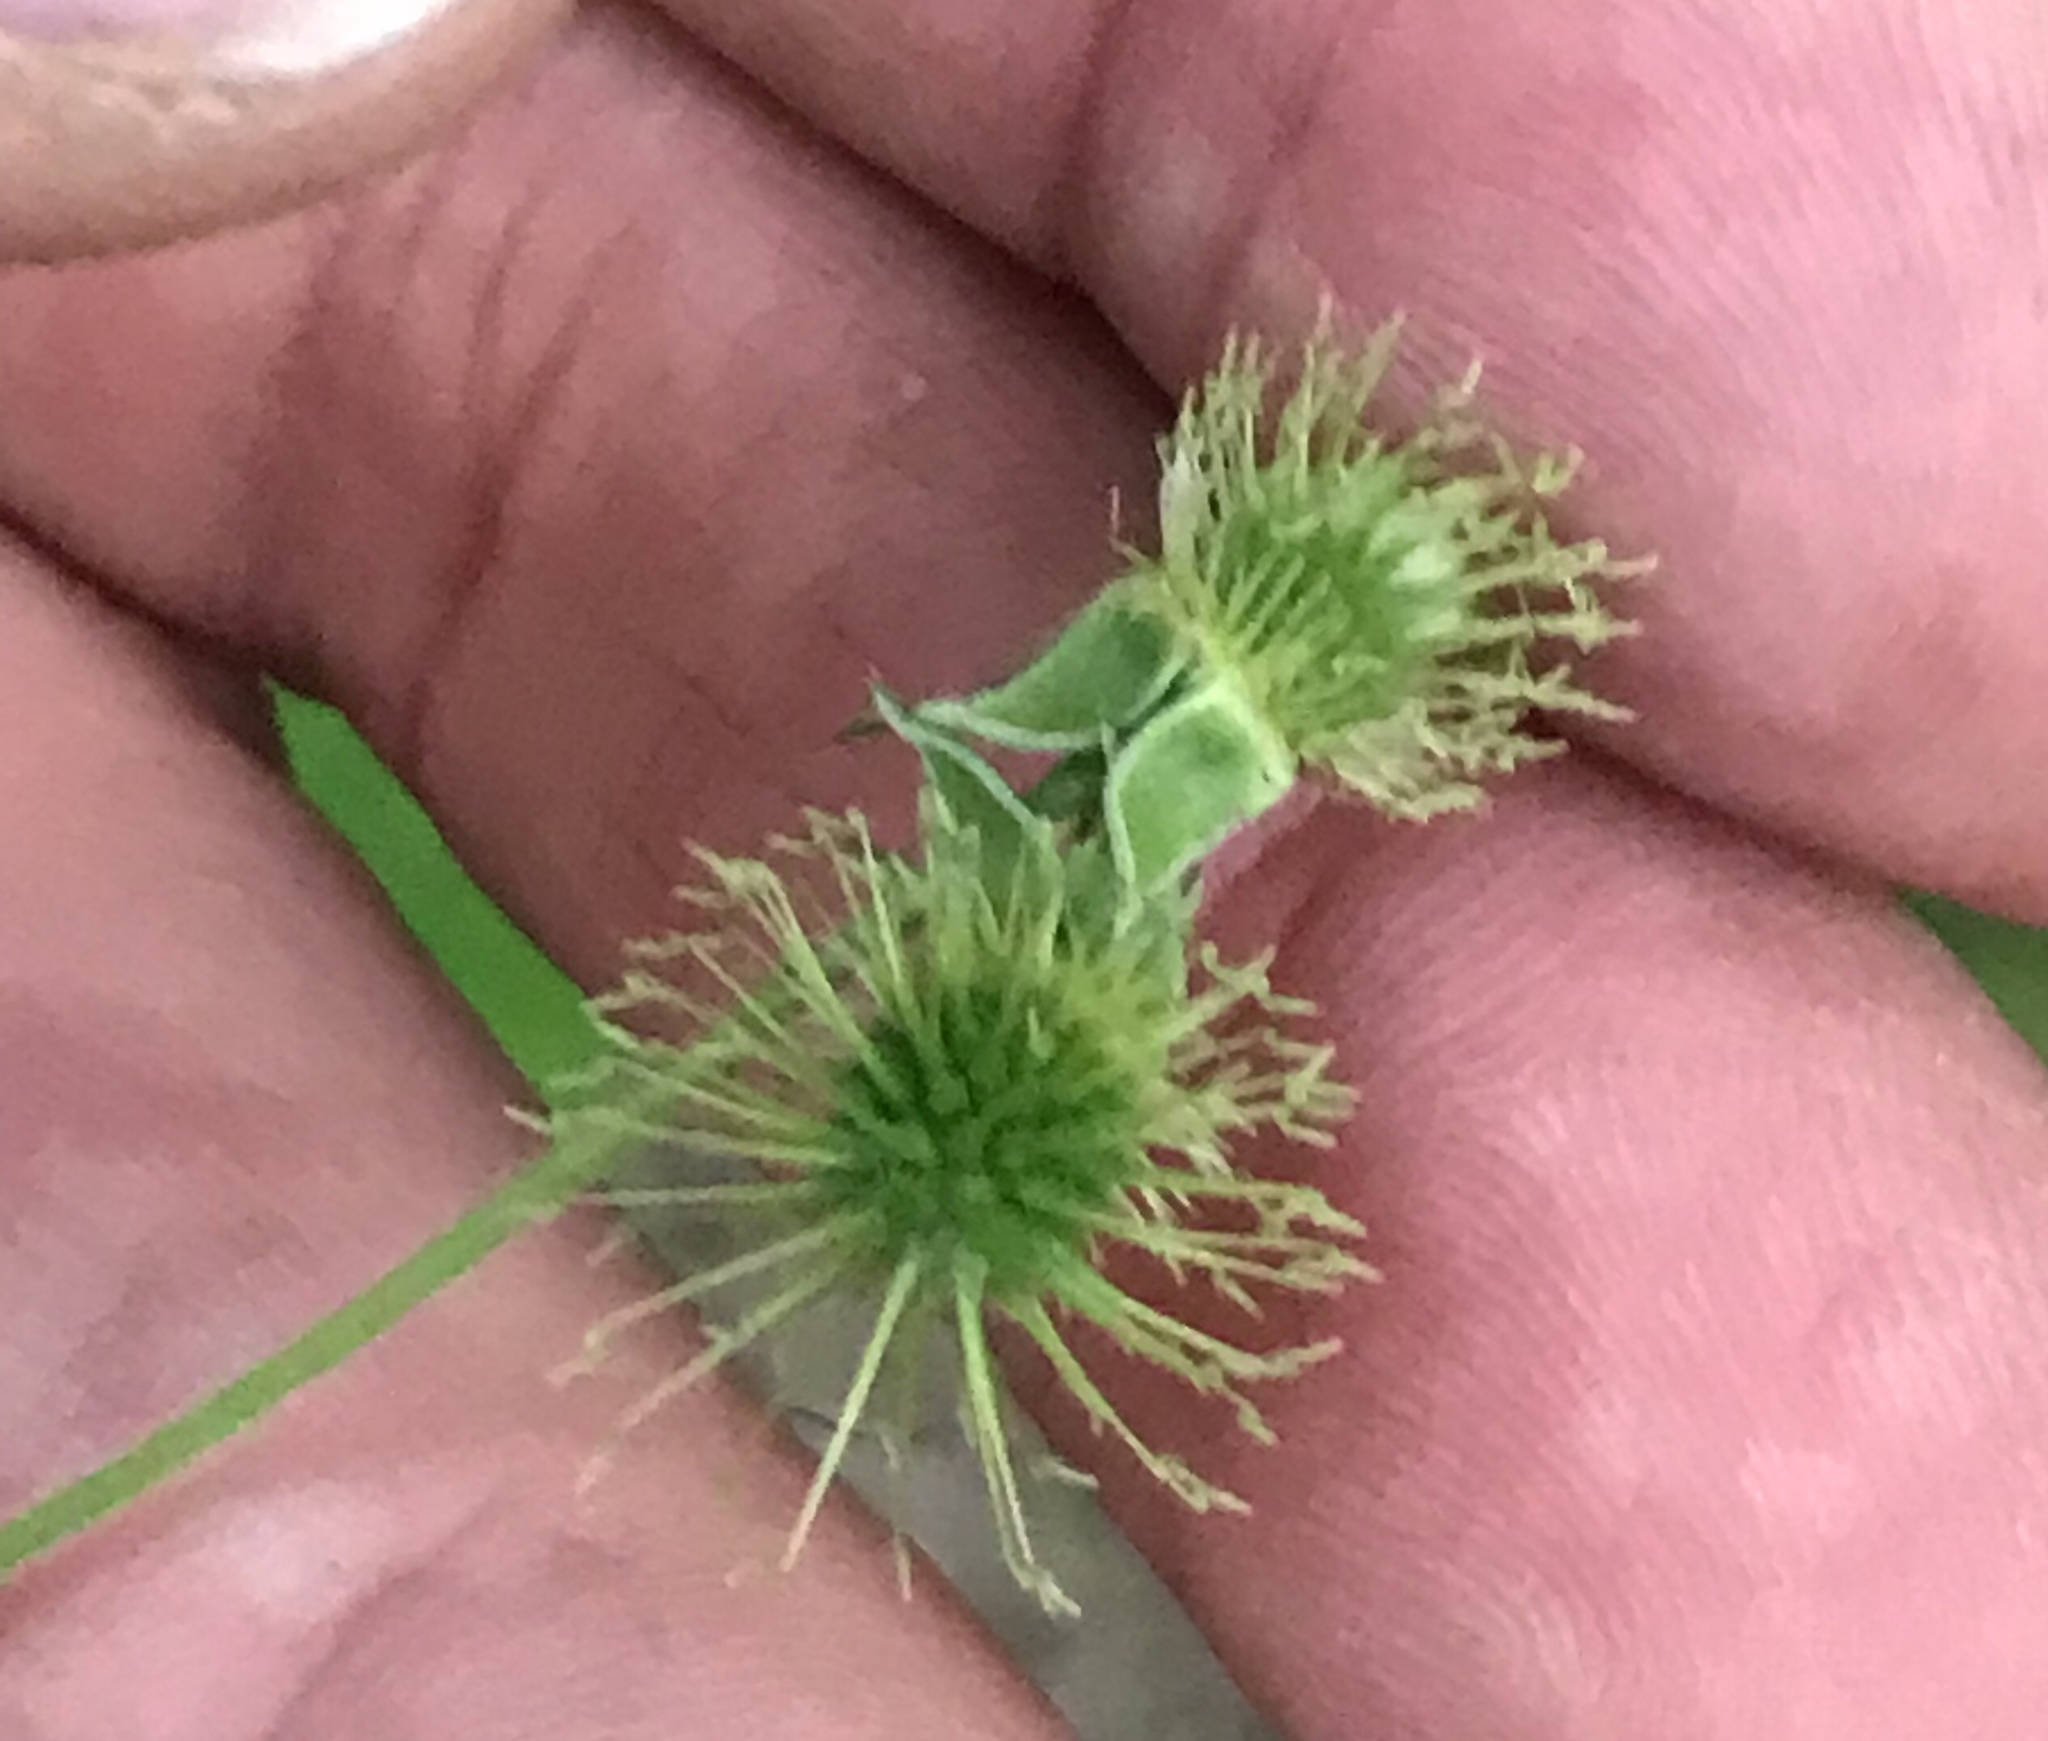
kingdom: Plantae
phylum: Tracheophyta
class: Magnoliopsida
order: Rosales
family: Rosaceae
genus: Geum
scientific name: Geum canadense
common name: White avens
